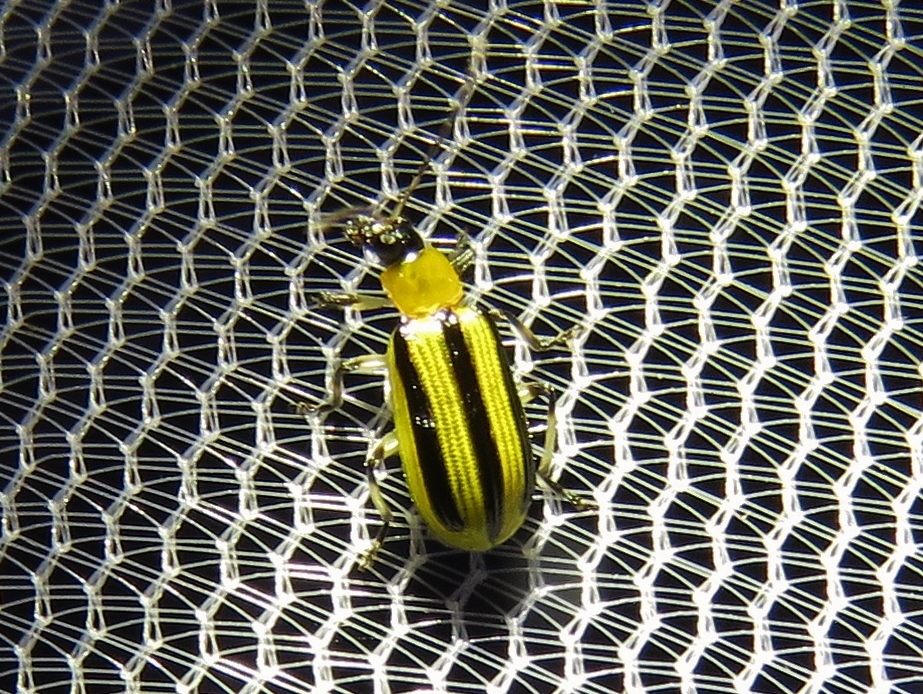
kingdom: Animalia
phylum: Arthropoda
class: Insecta
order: Coleoptera
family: Chrysomelidae
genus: Acalymma
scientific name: Acalymma vittatum
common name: Striped cucumber beetle
